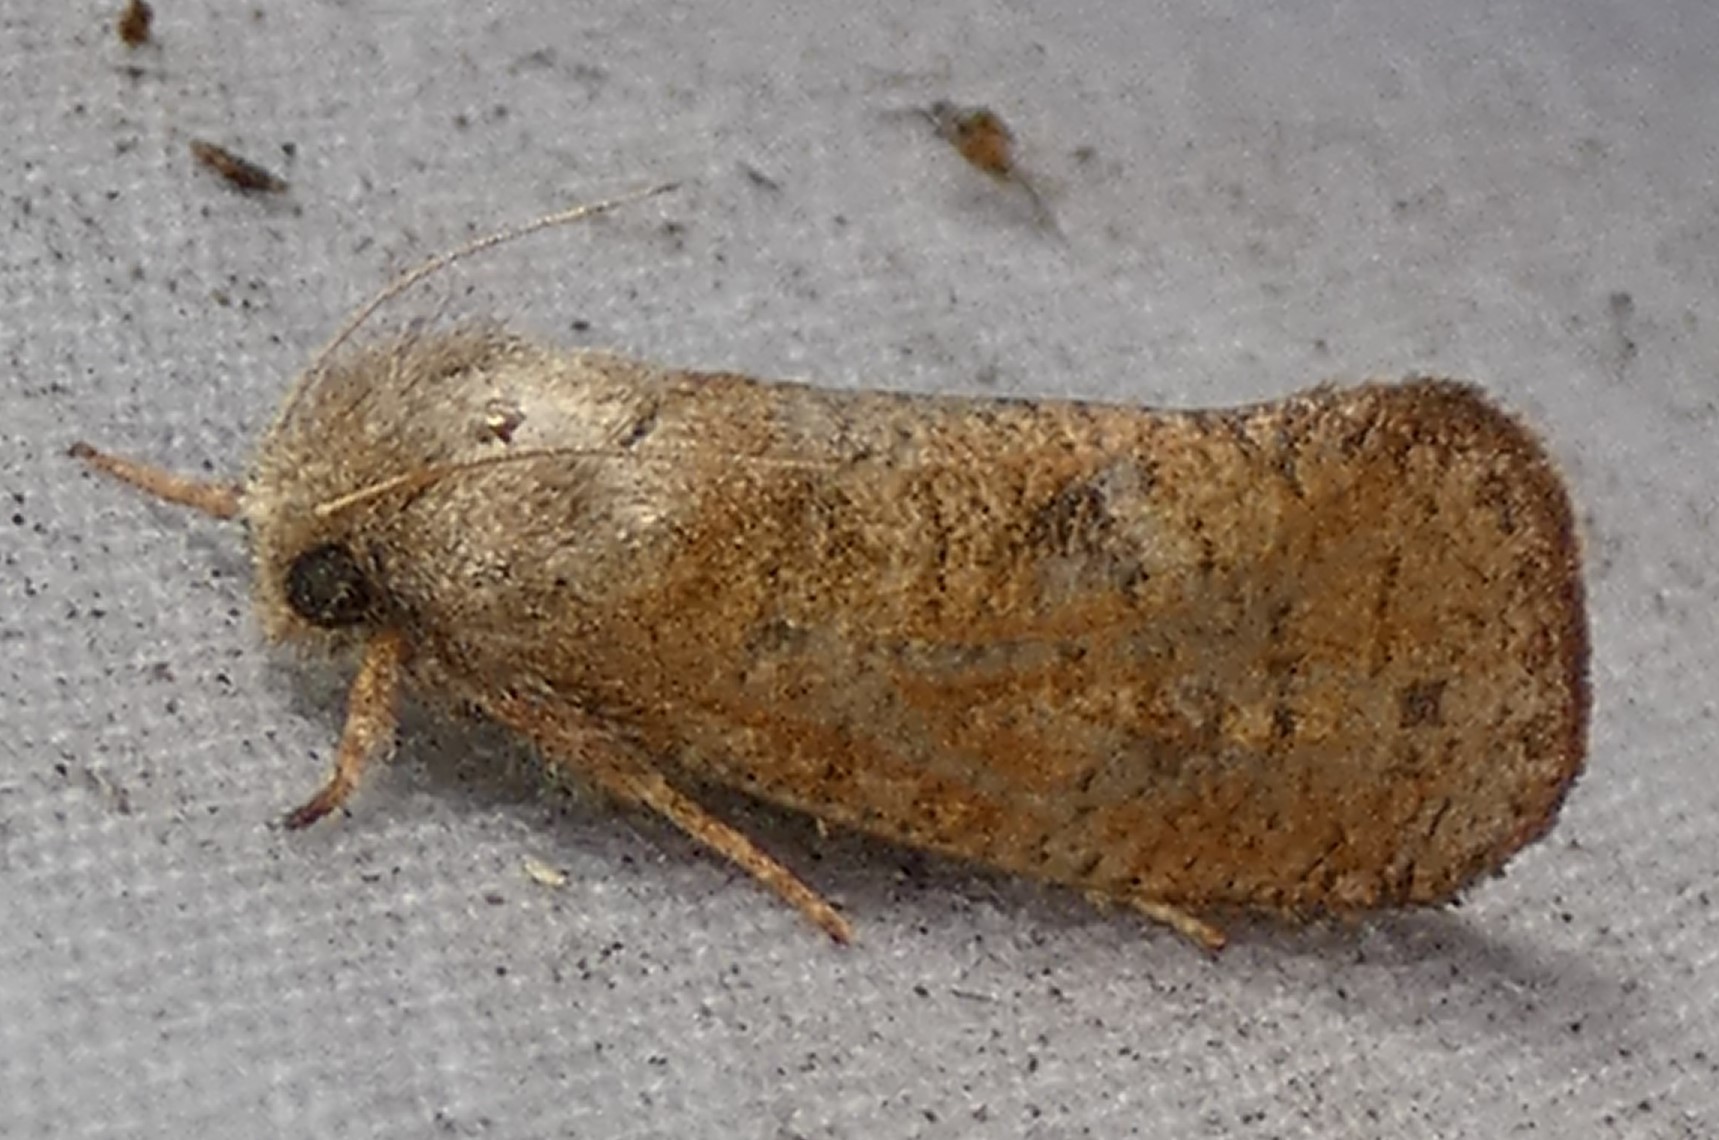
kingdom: Animalia
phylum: Arthropoda
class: Insecta
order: Lepidoptera
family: Tineidae
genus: Acrolophus
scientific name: Acrolophus plumifrontella
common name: Eastern grass tubeworm moth
